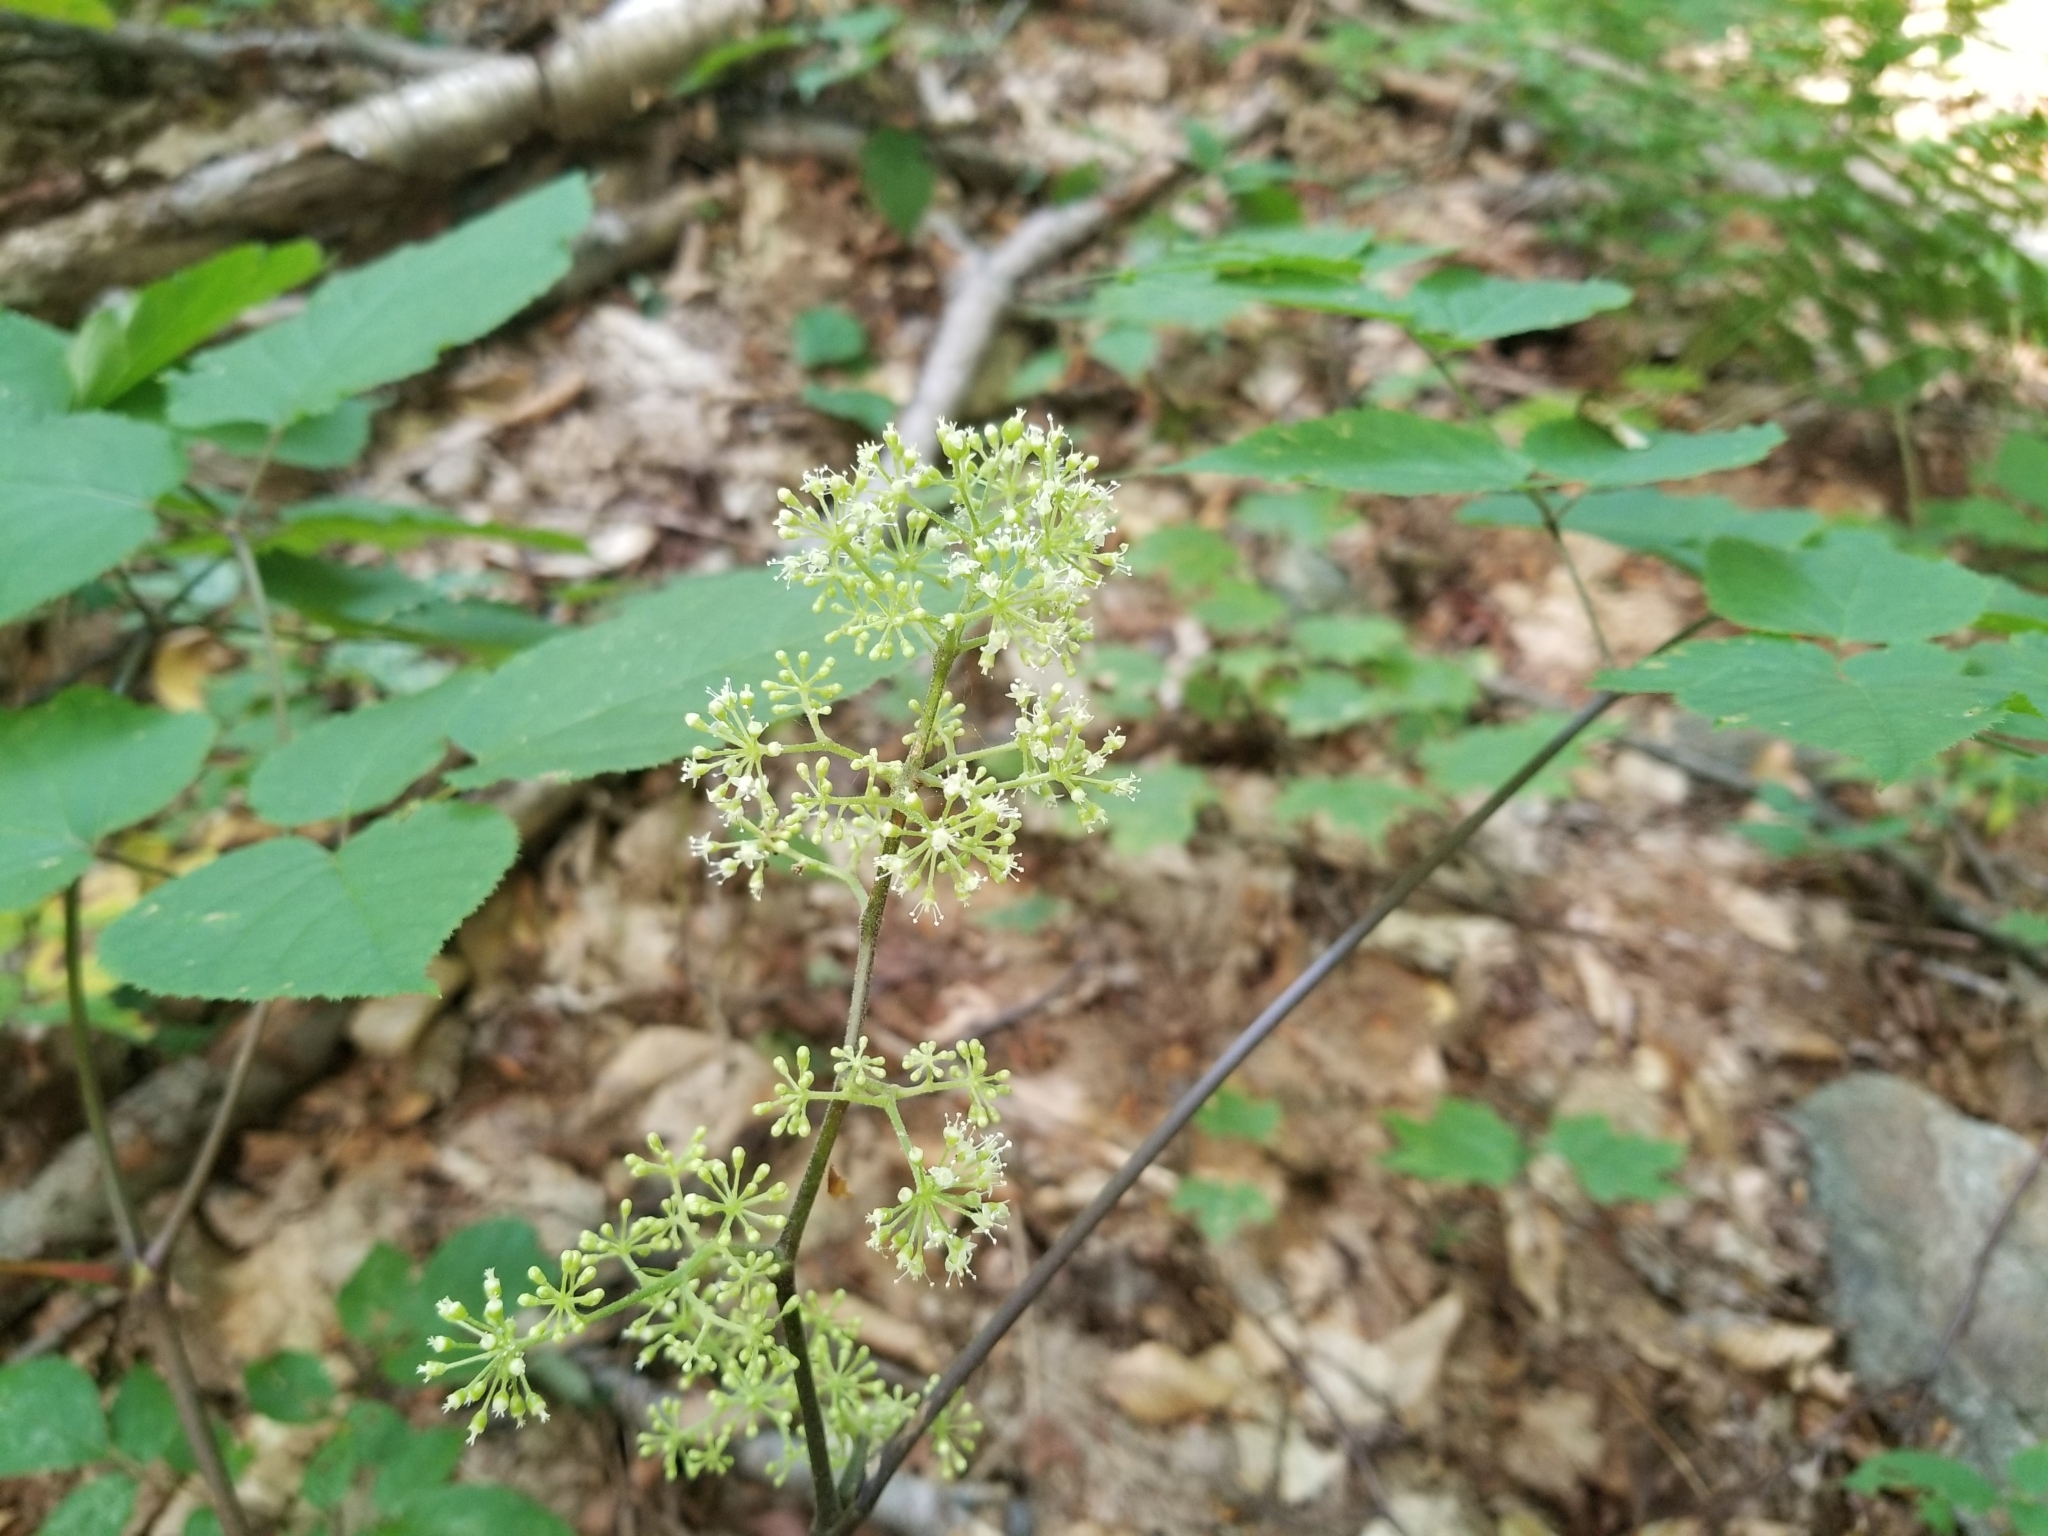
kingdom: Plantae
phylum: Tracheophyta
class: Magnoliopsida
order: Apiales
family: Araliaceae
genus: Aralia
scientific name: Aralia racemosa
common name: American-spikenard
